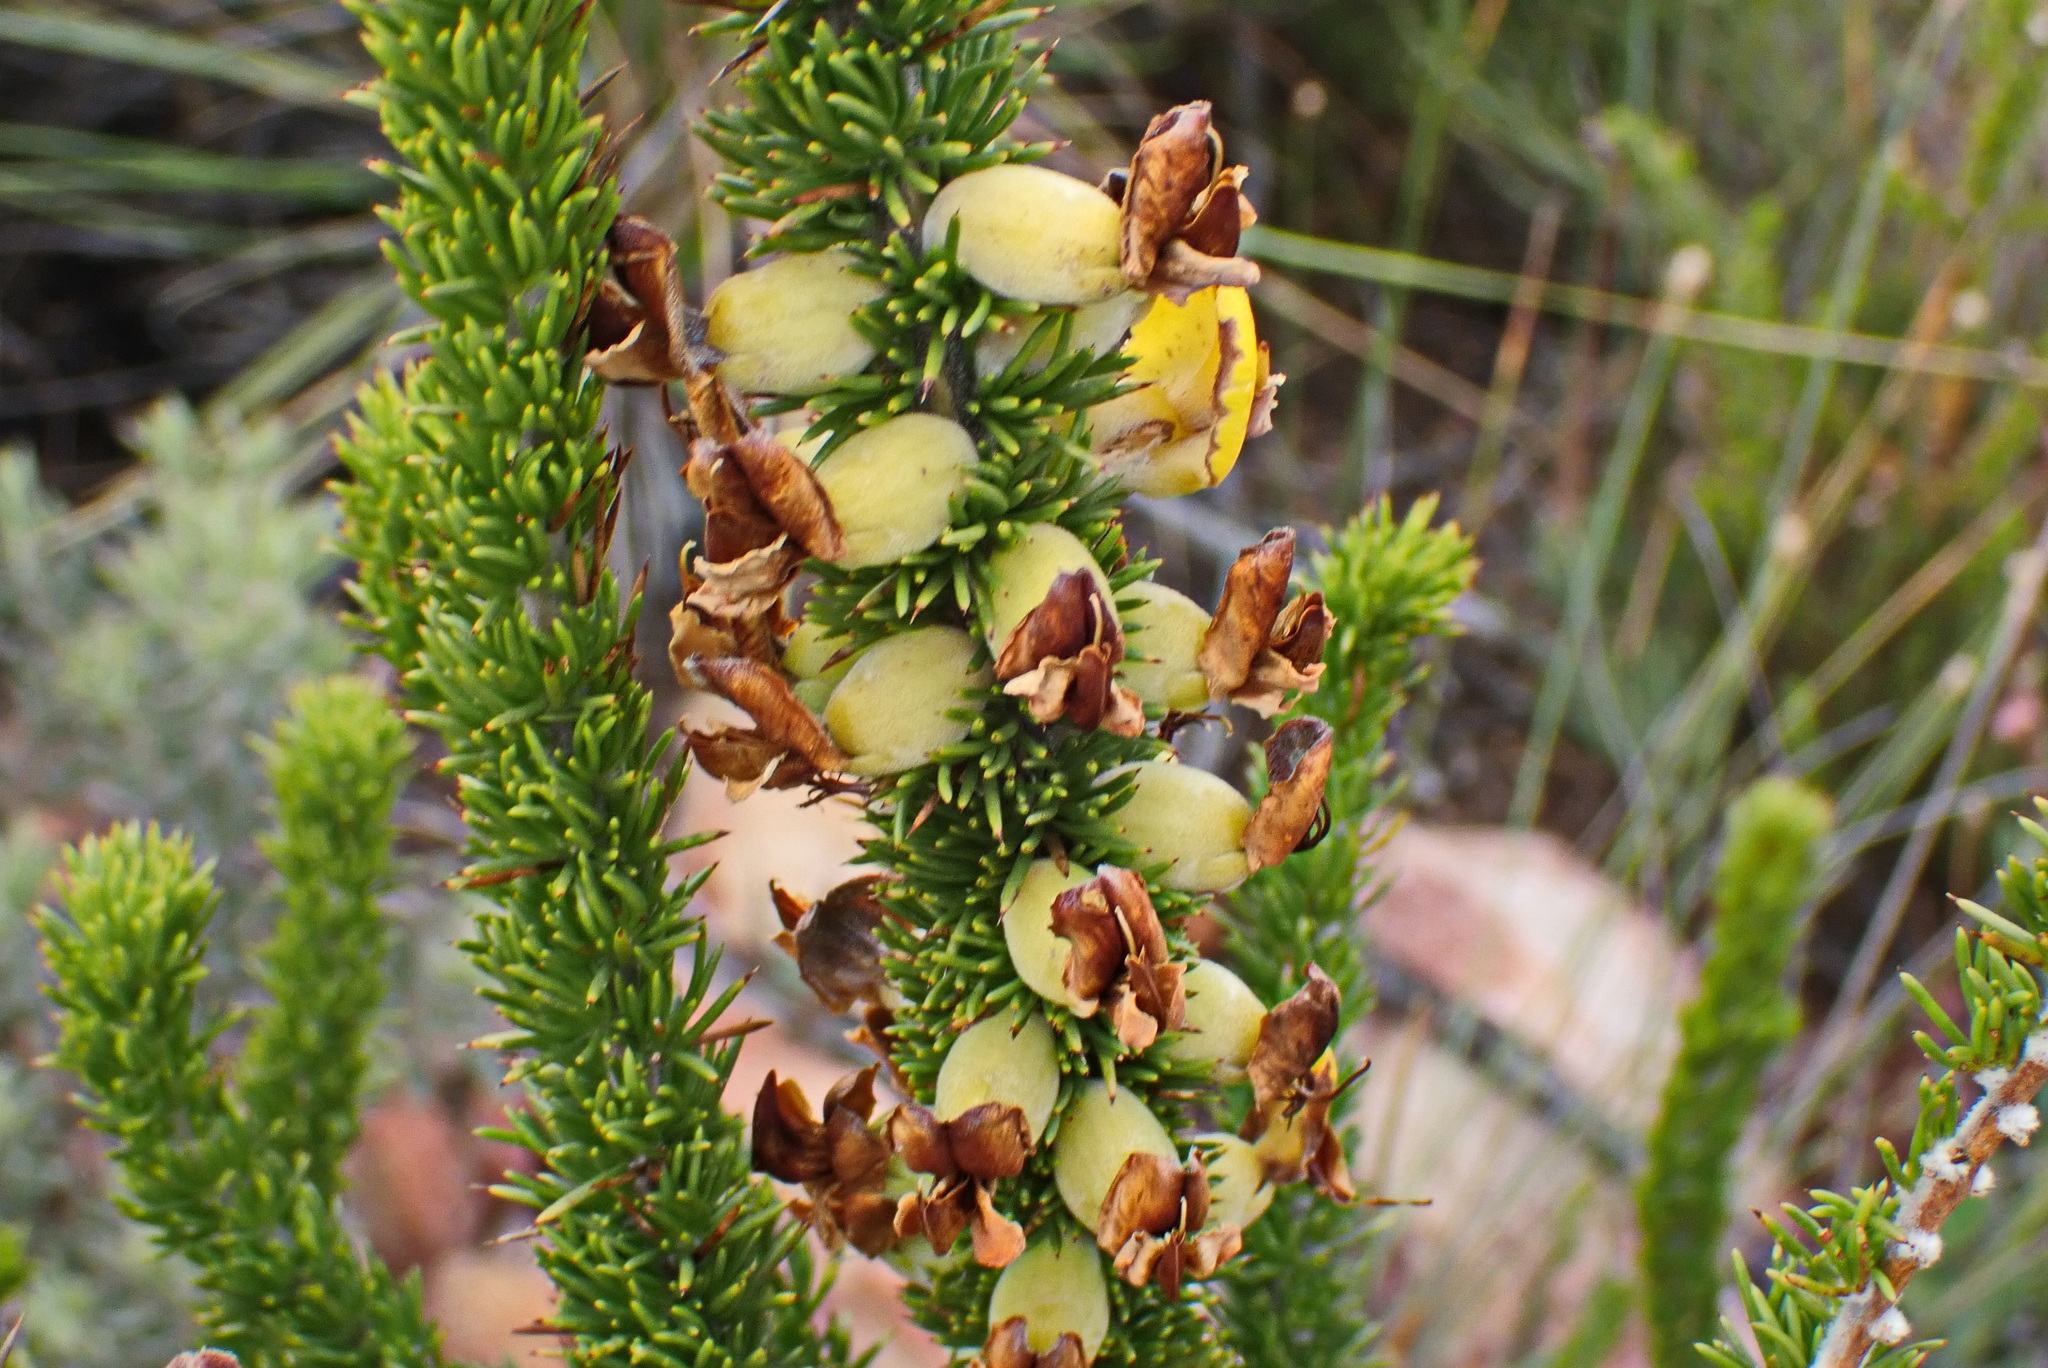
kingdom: Plantae
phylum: Tracheophyta
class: Magnoliopsida
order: Fabales
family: Fabaceae
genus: Aspalathus
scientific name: Aspalathus sceptrumaureum
